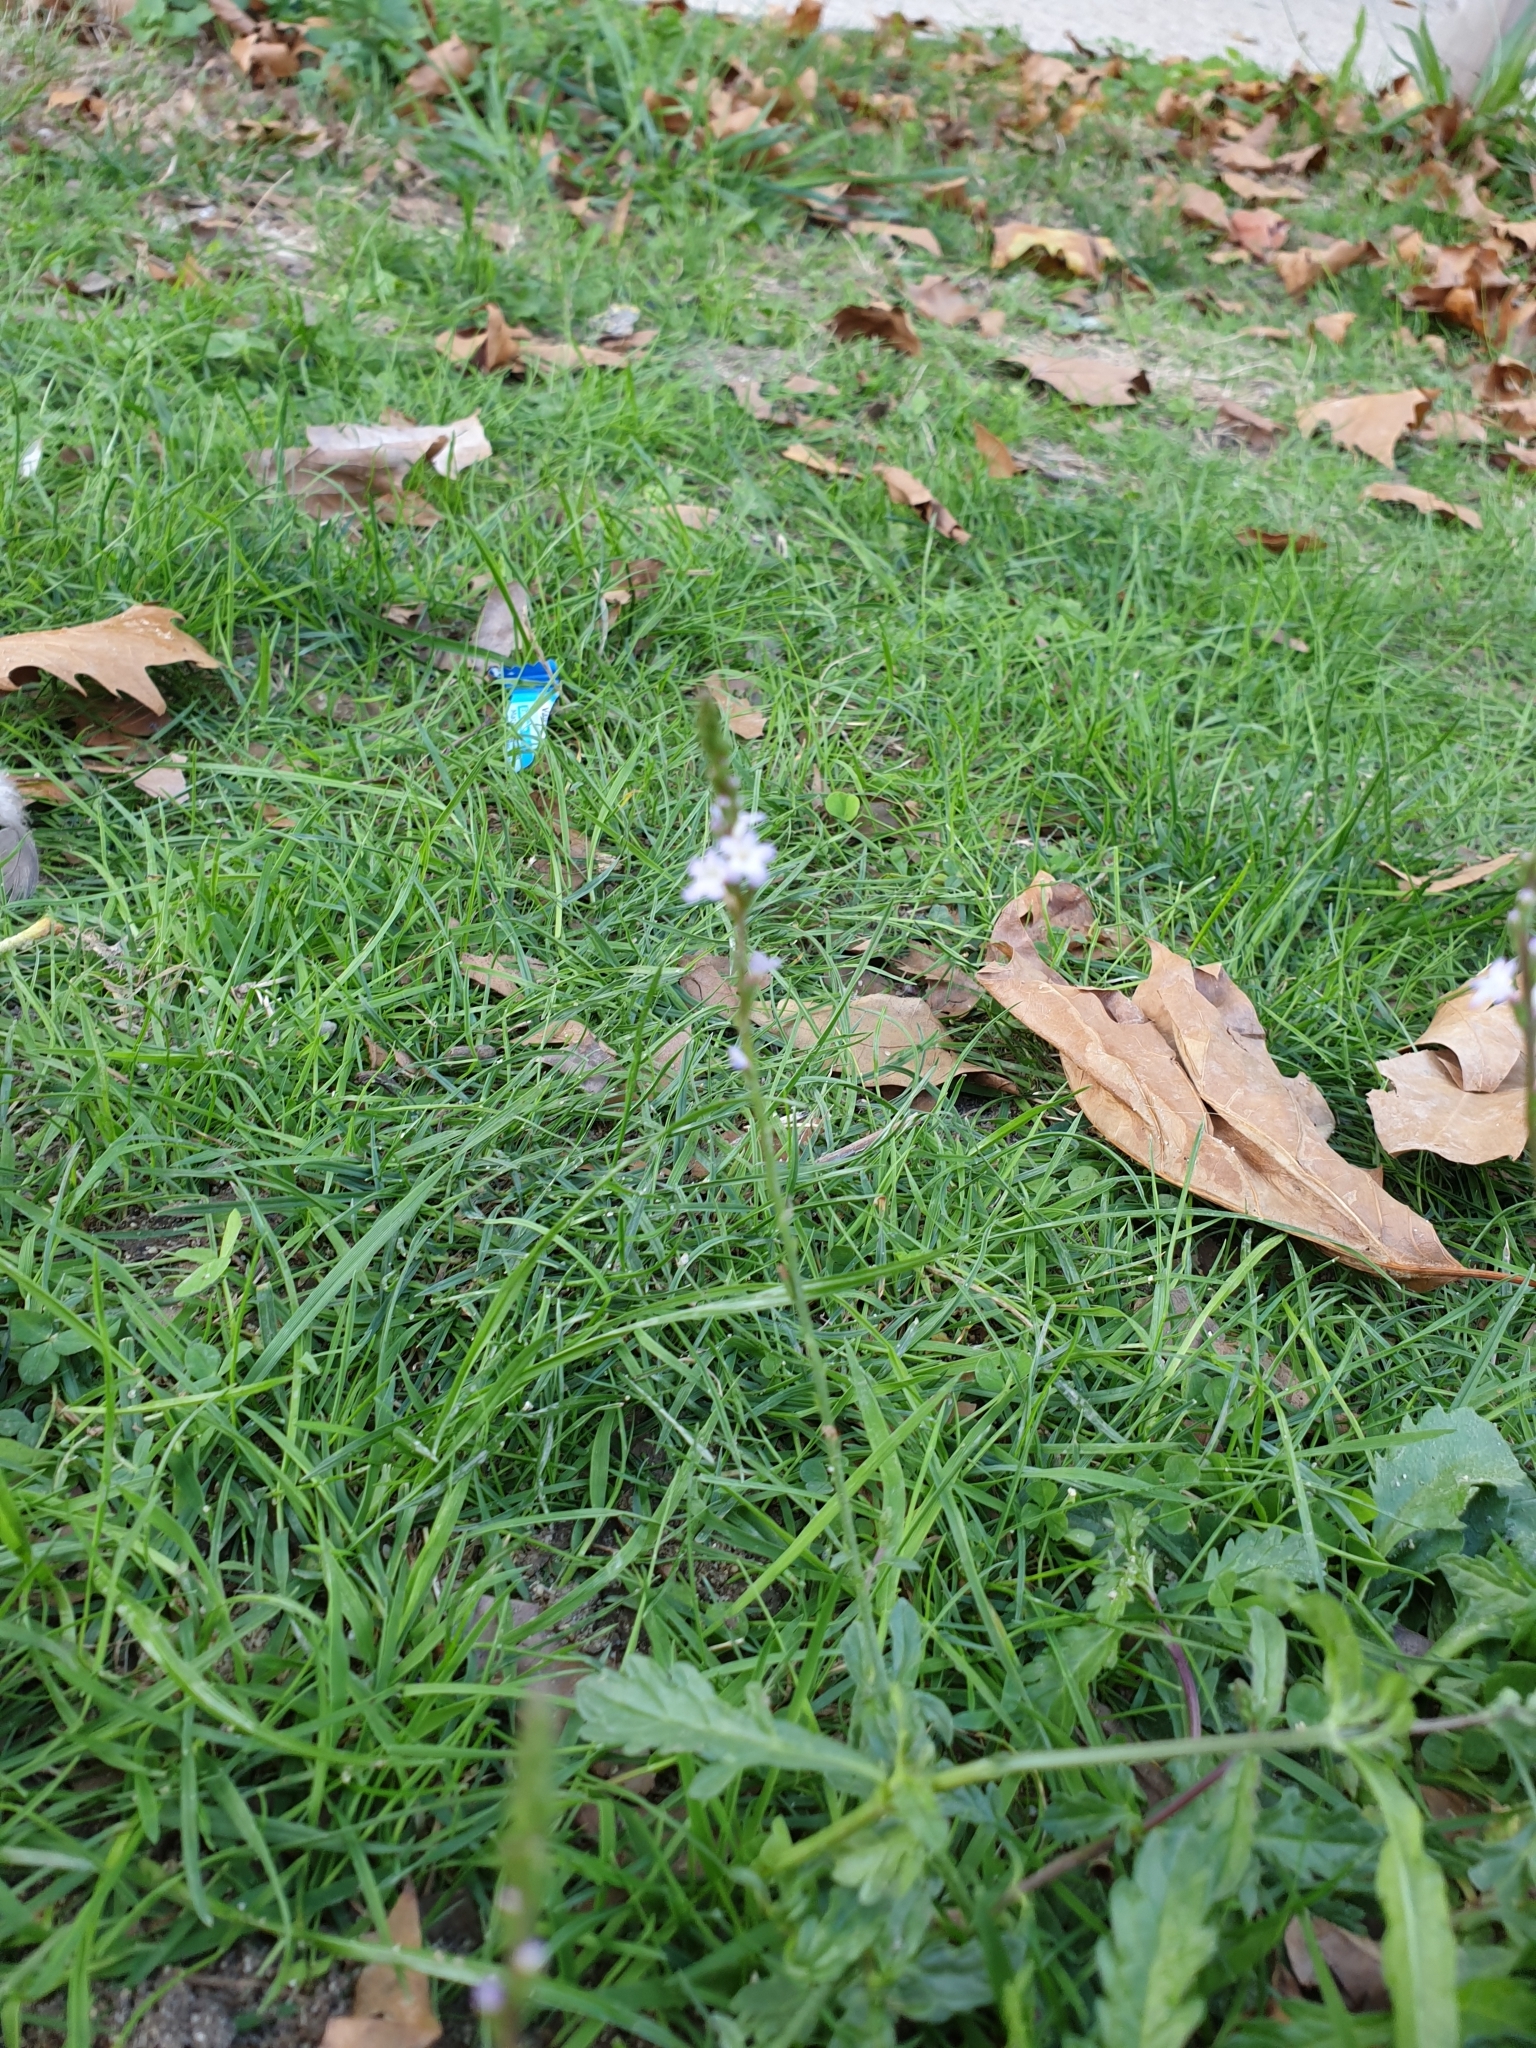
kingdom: Plantae
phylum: Tracheophyta
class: Magnoliopsida
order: Lamiales
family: Verbenaceae
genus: Verbena
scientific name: Verbena officinalis
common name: Vervain
